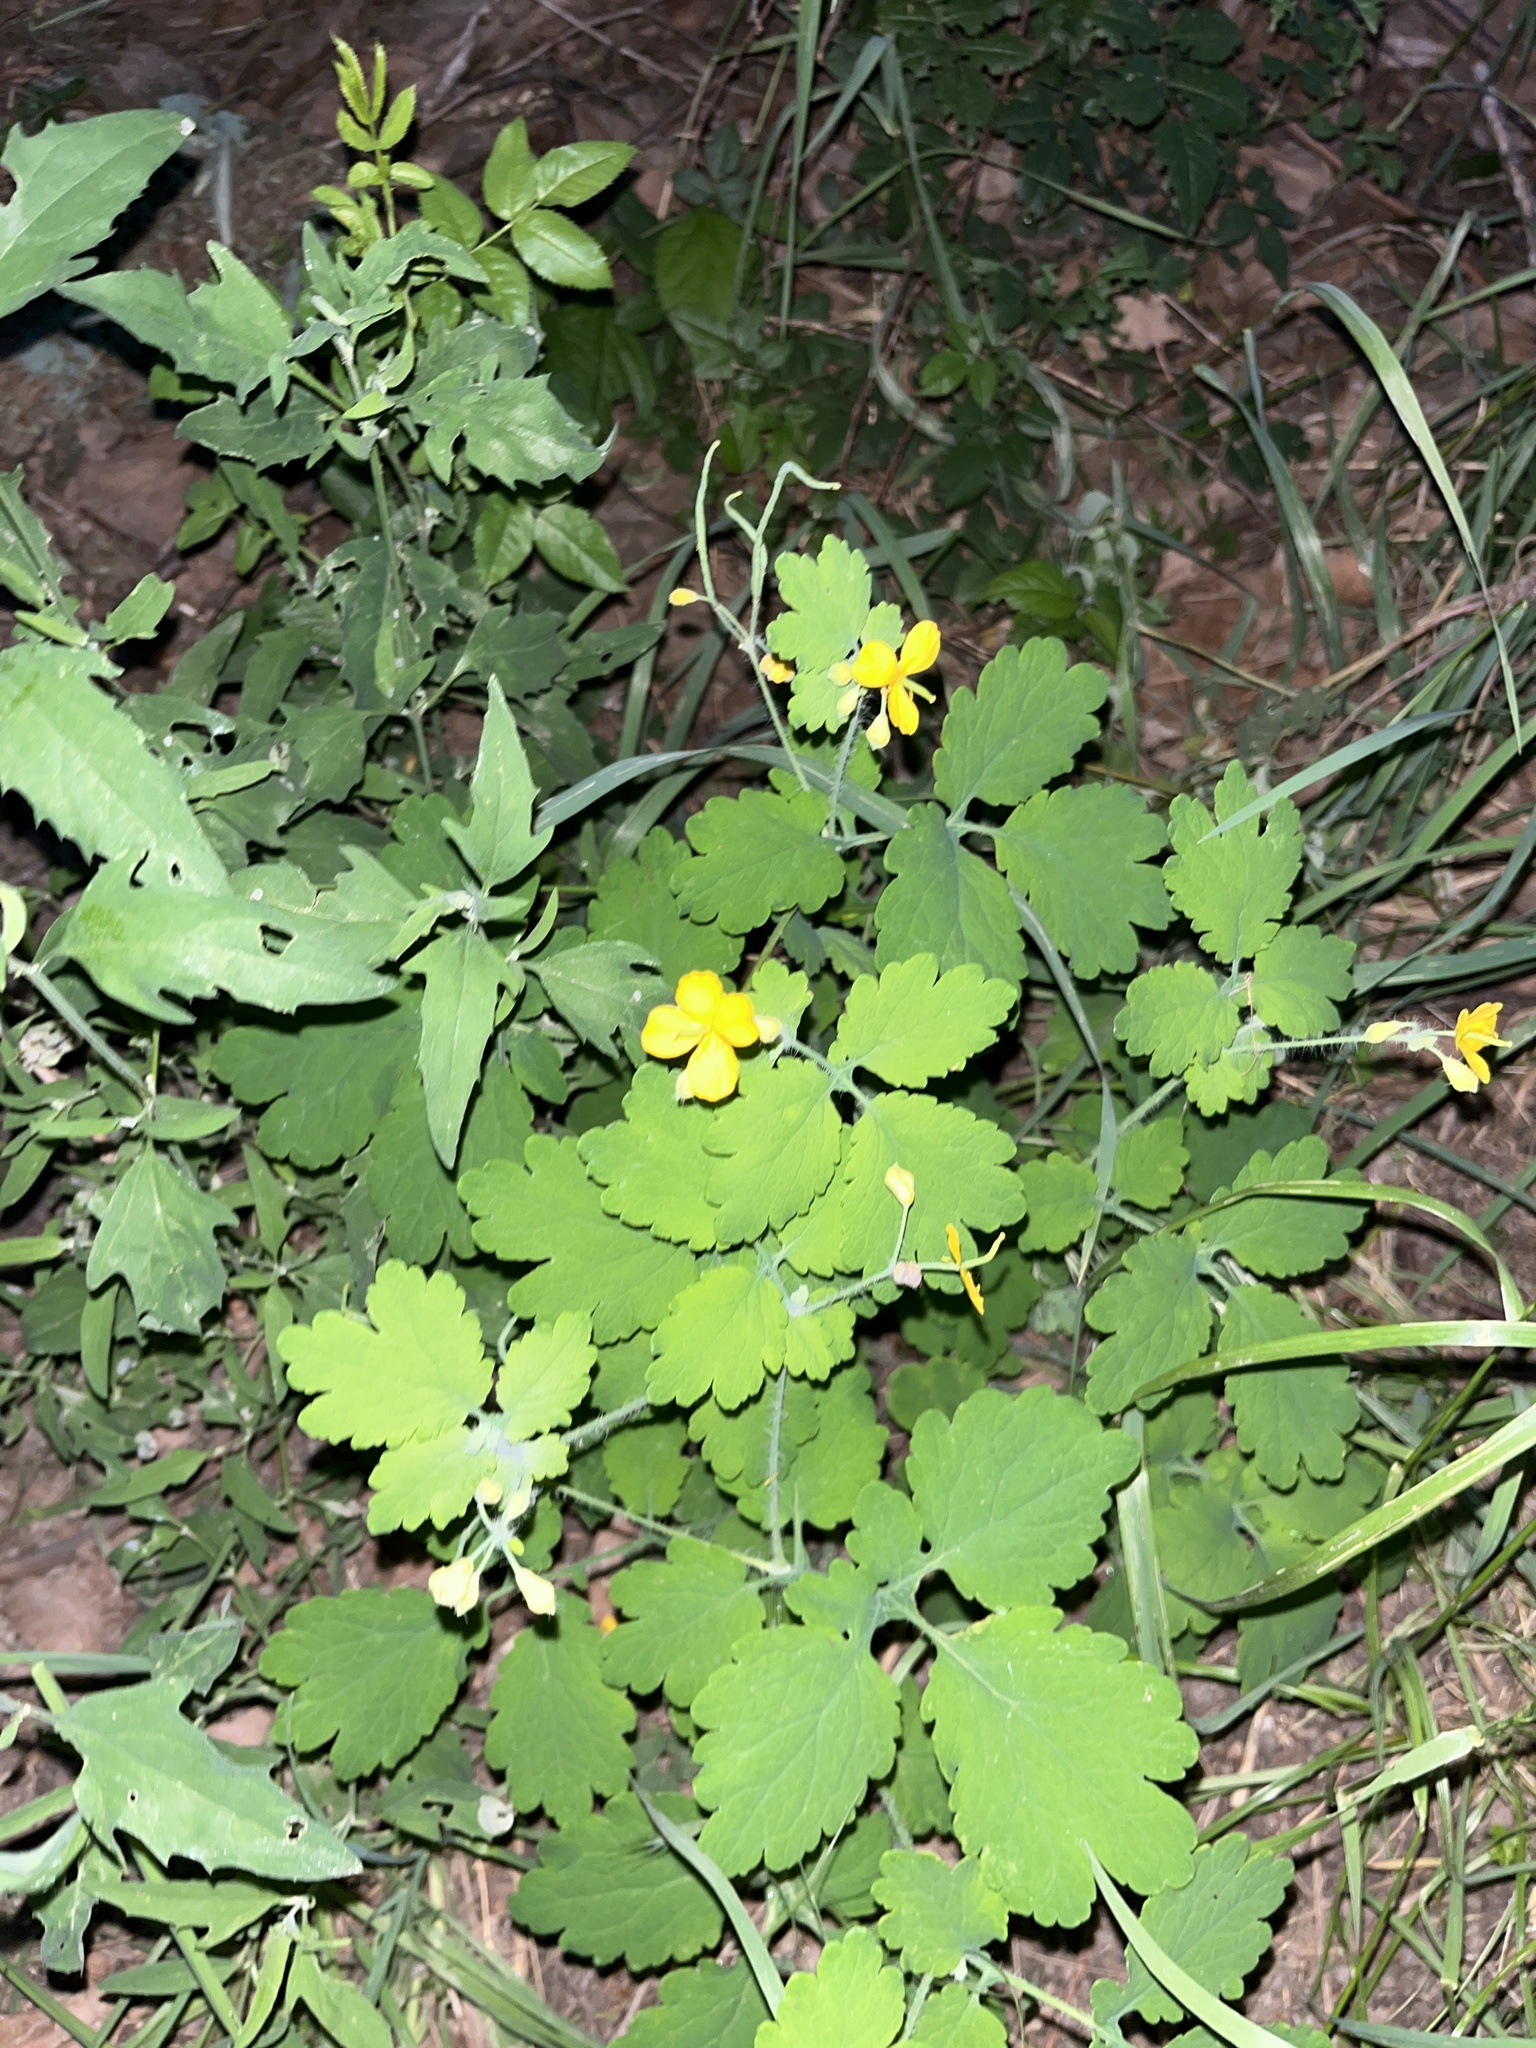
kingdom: Plantae
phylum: Tracheophyta
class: Magnoliopsida
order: Ranunculales
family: Papaveraceae
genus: Chelidonium
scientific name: Chelidonium majus
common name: Greater celandine
